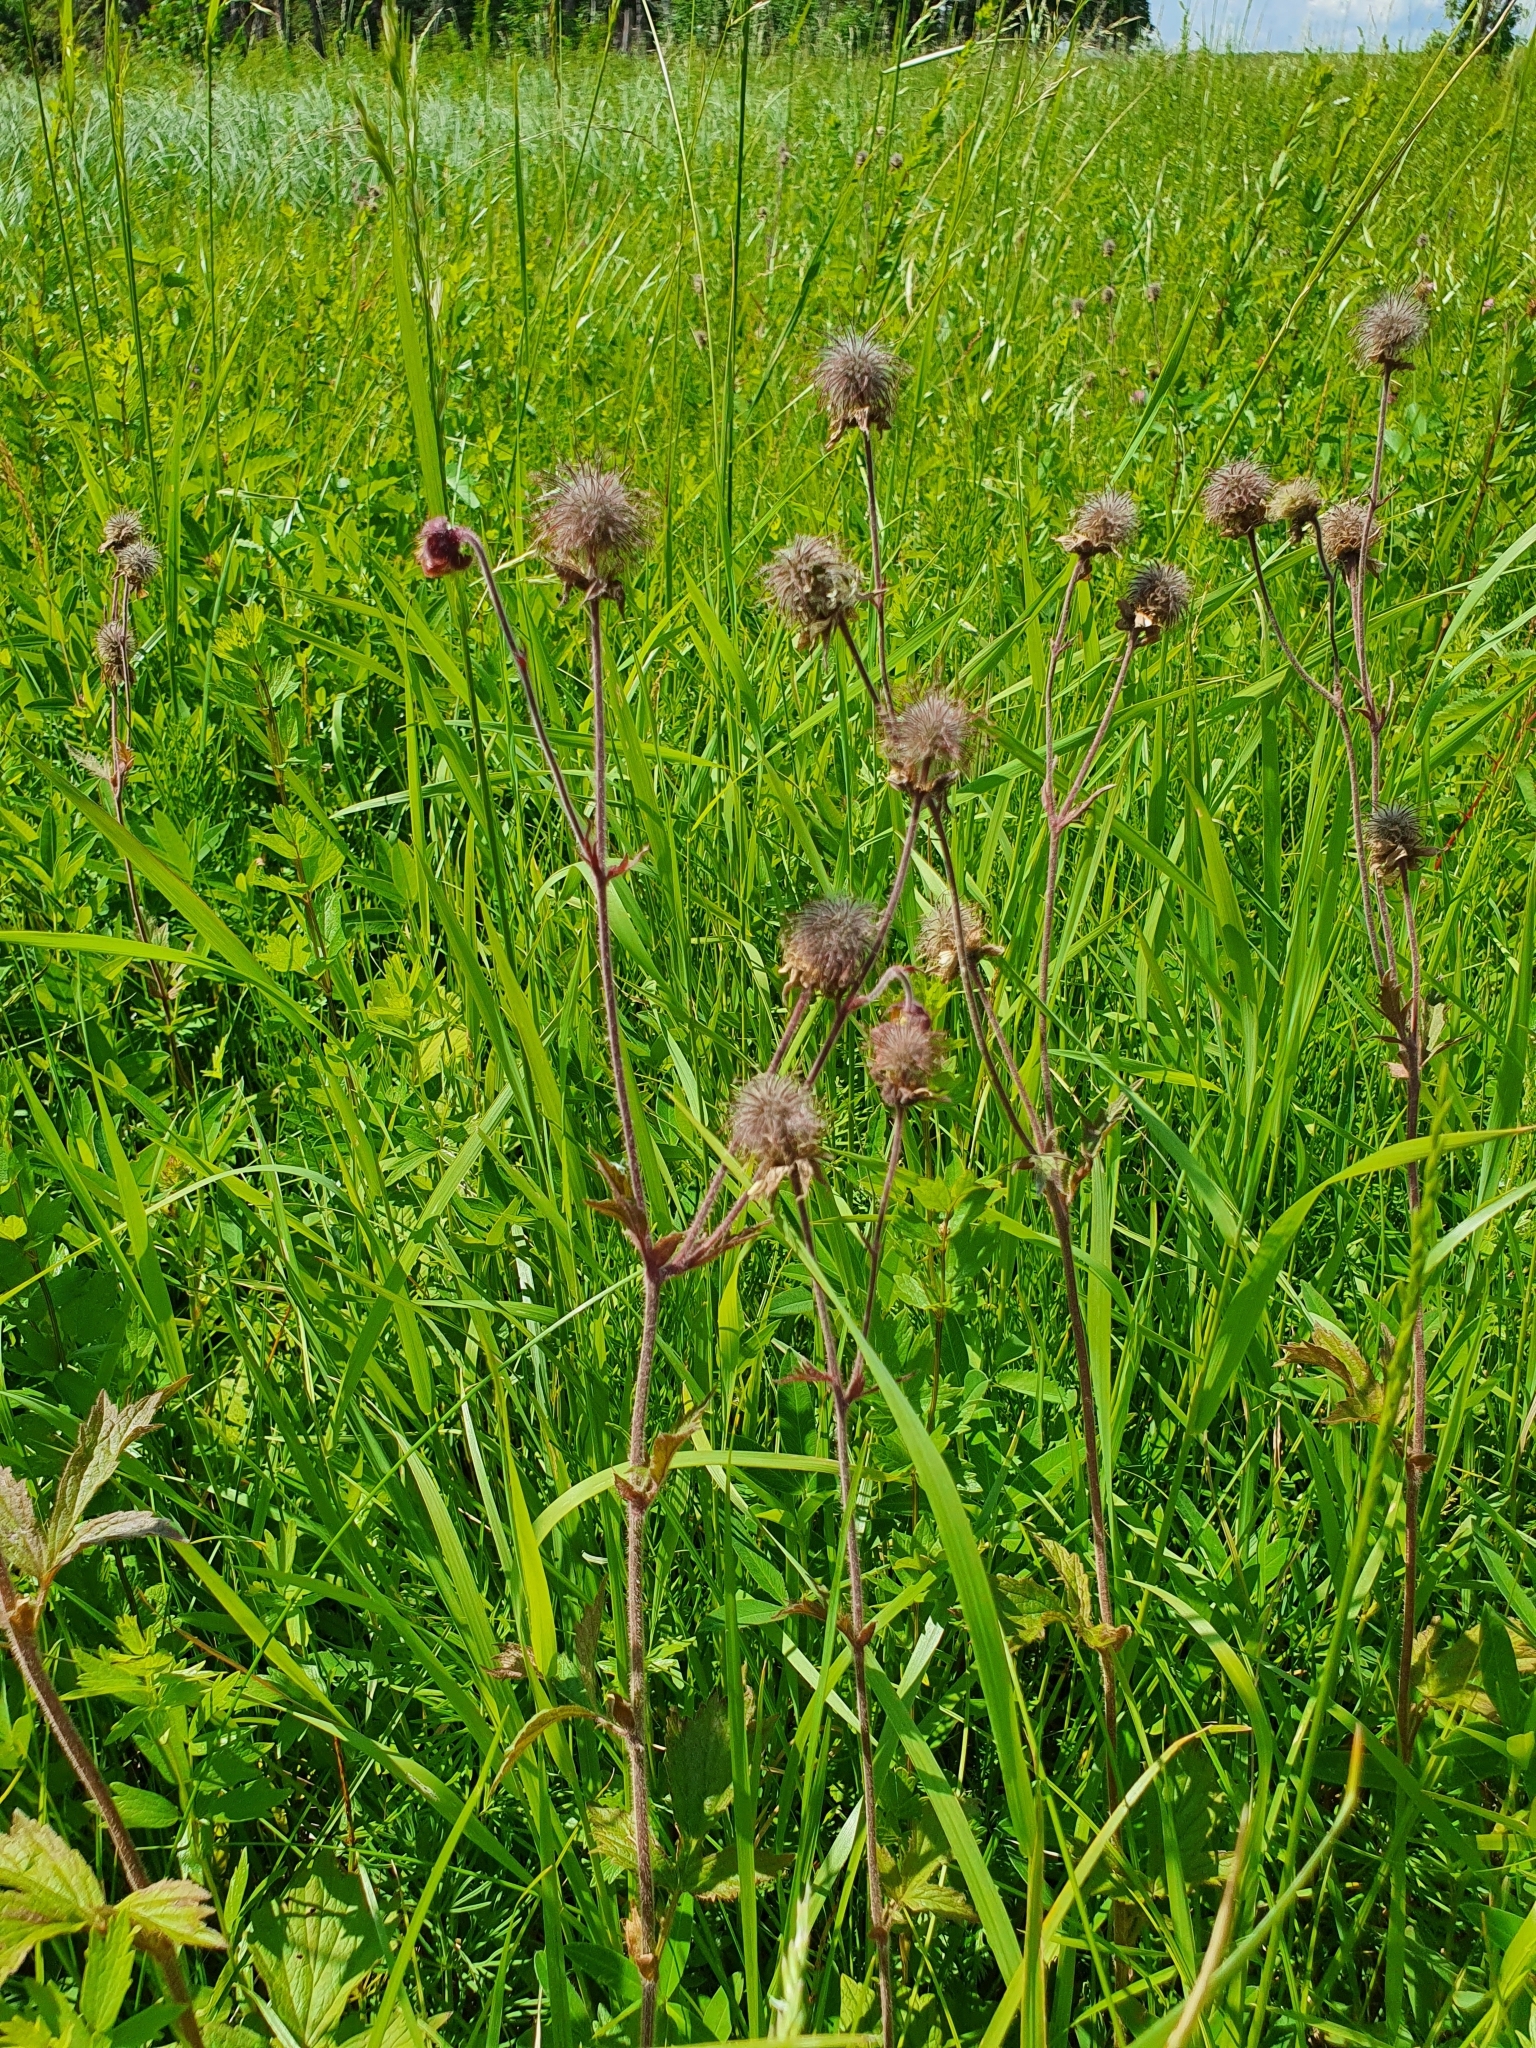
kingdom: Plantae
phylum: Tracheophyta
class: Magnoliopsida
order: Rosales
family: Rosaceae
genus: Geum
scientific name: Geum rivale
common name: Water avens
